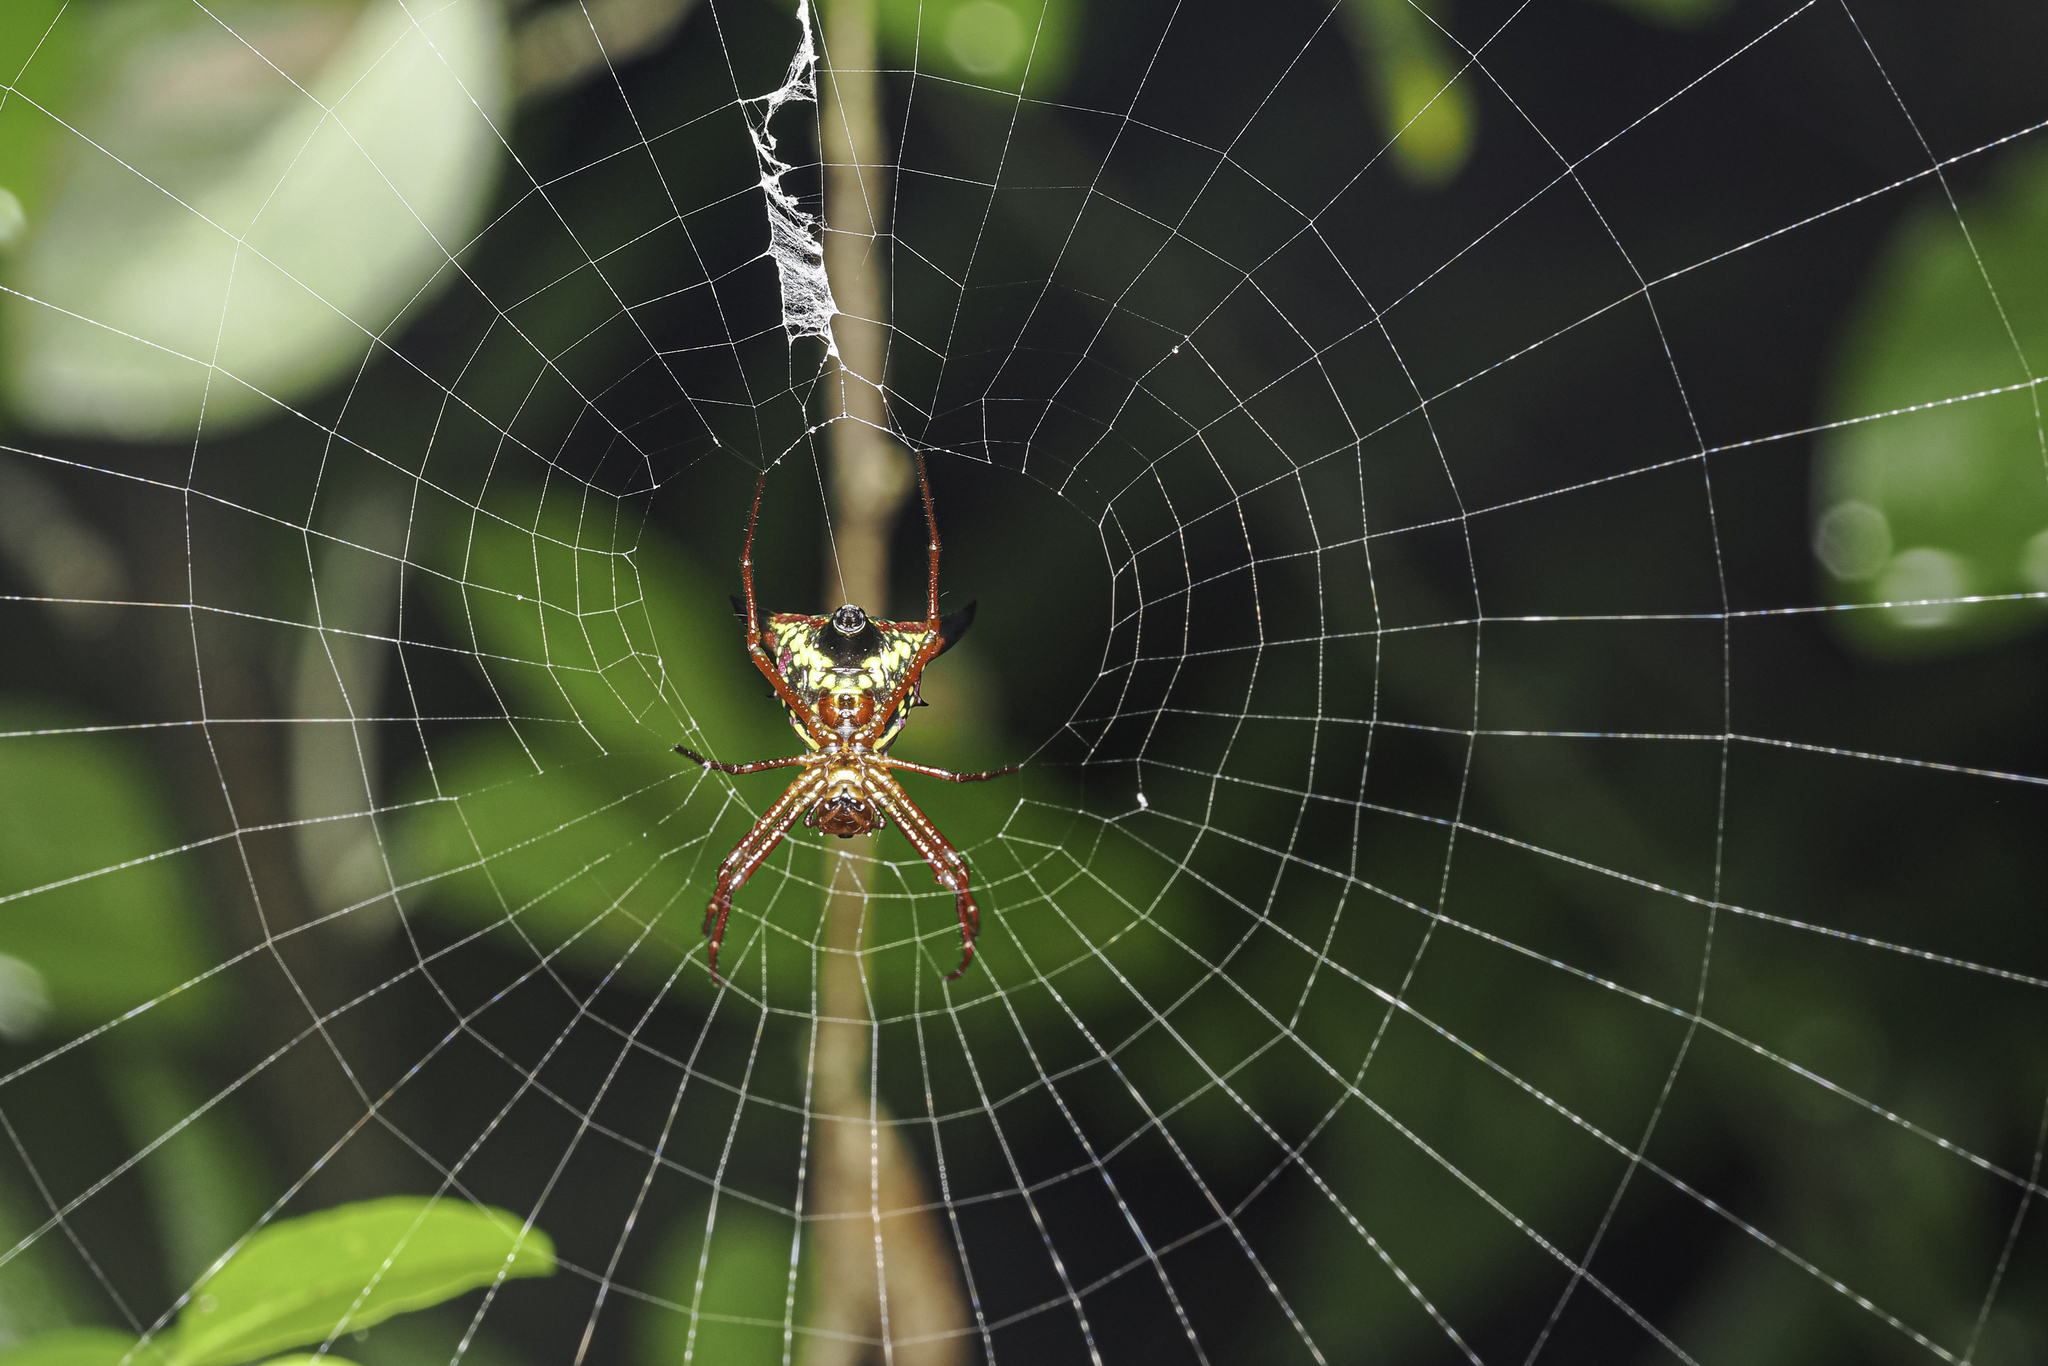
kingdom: Animalia
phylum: Arthropoda
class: Arachnida
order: Araneae
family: Araneidae
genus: Micrathena
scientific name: Micrathena sagittata
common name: Orb weavers
